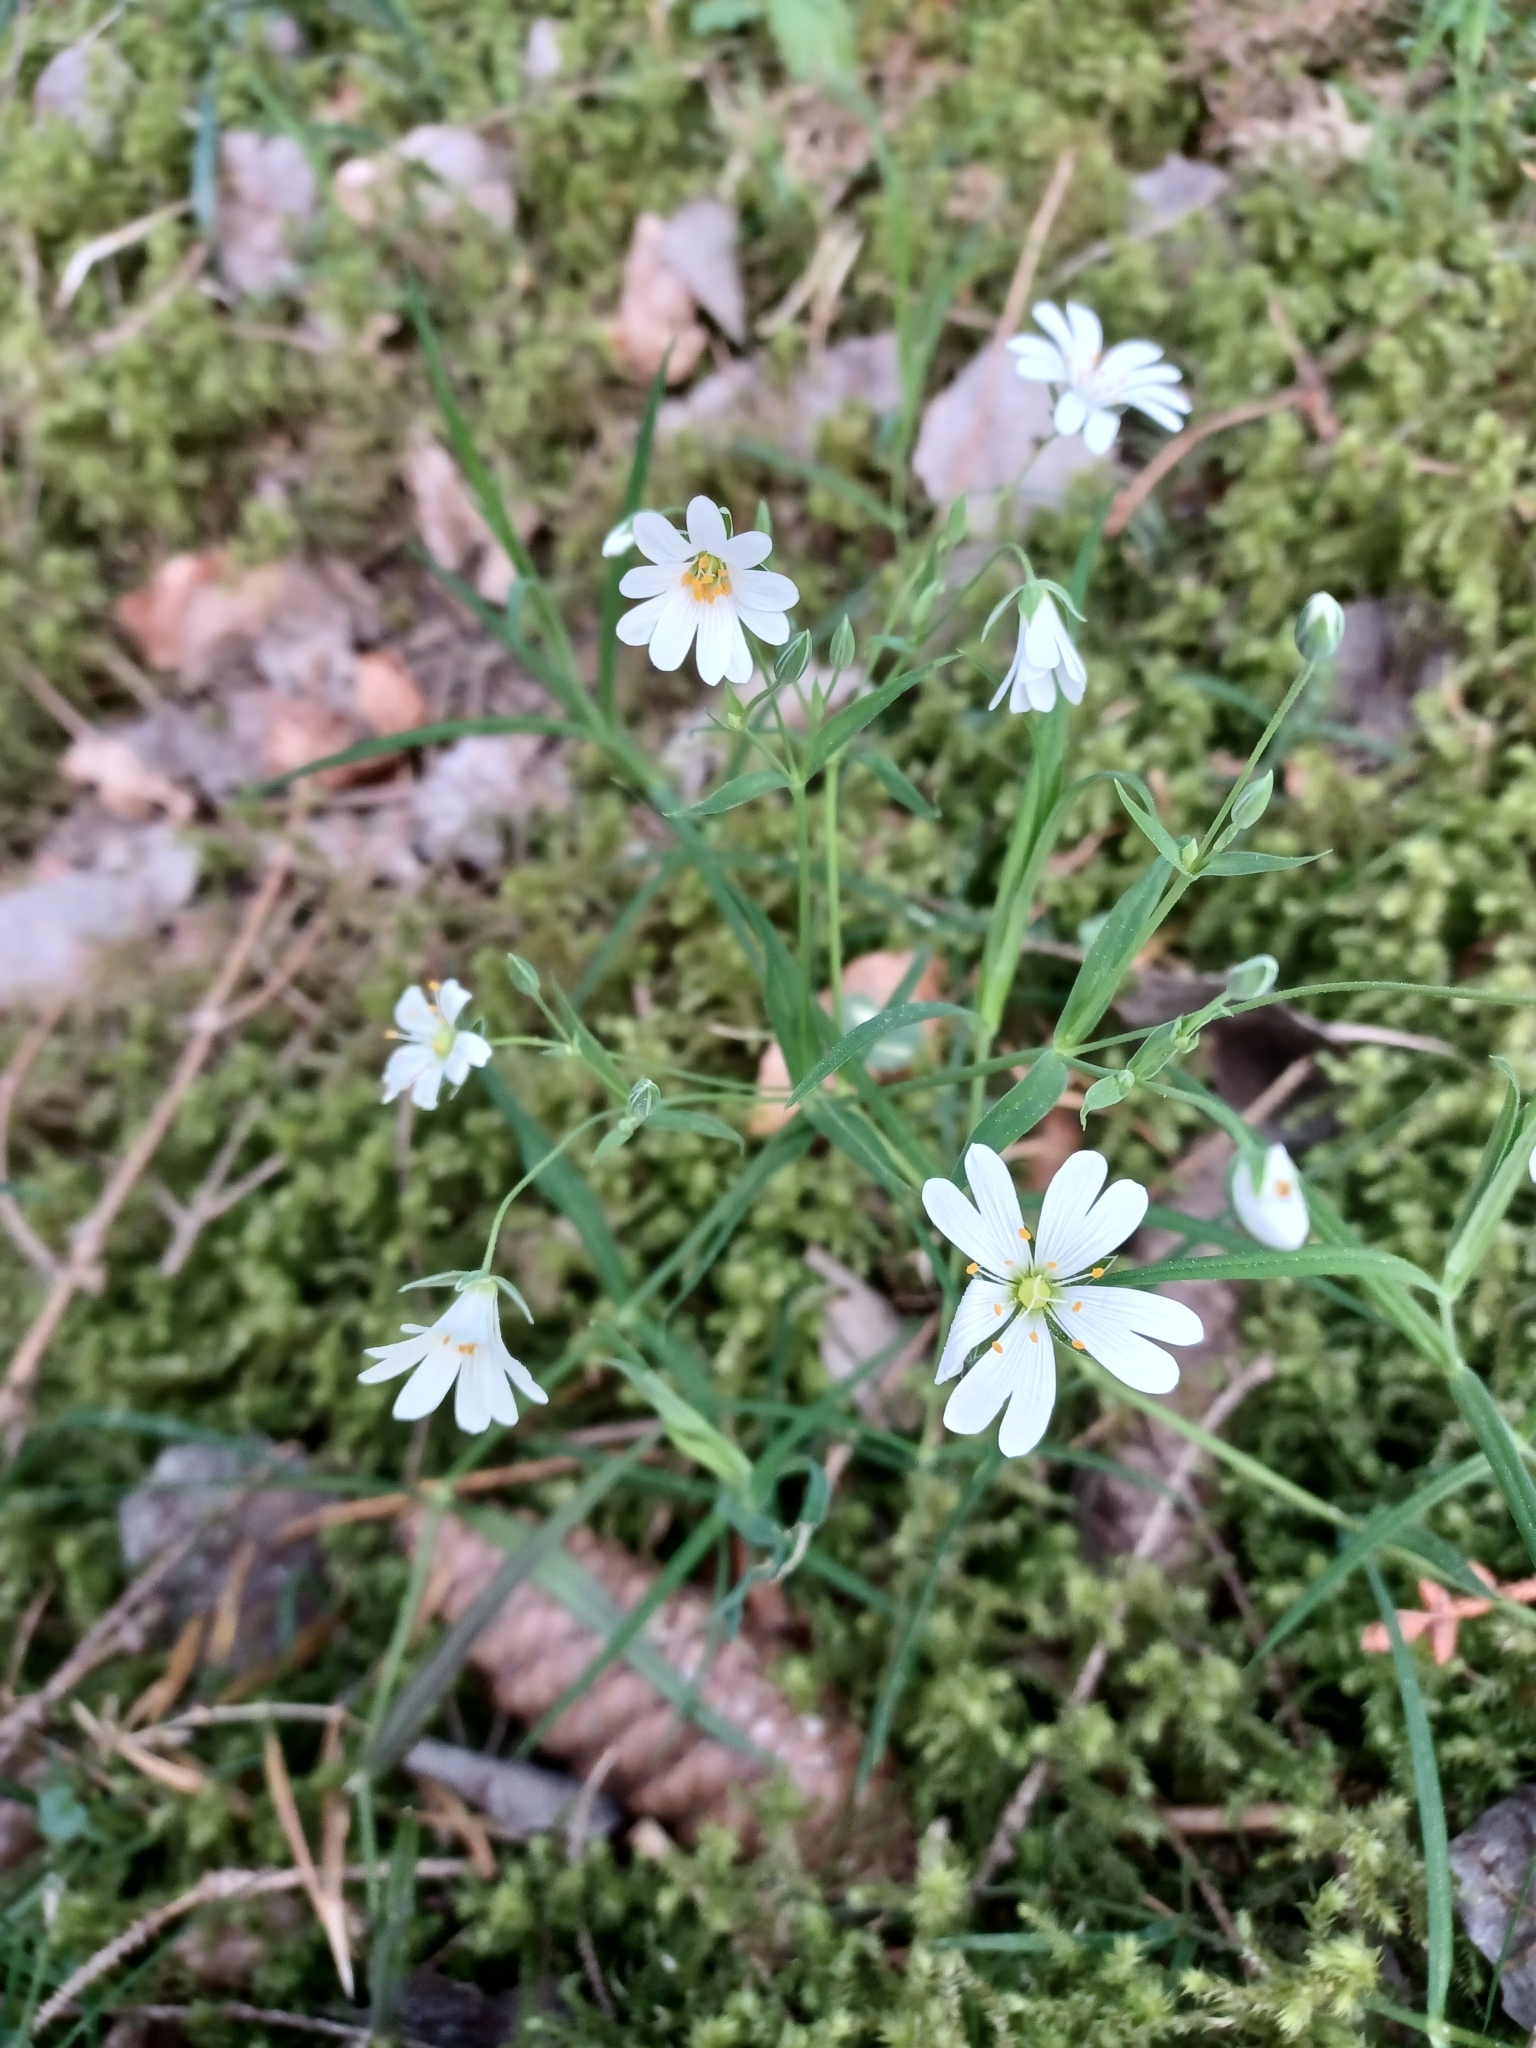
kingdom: Plantae
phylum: Tracheophyta
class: Magnoliopsida
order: Caryophyllales
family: Caryophyllaceae
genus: Rabelera
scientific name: Rabelera holostea
